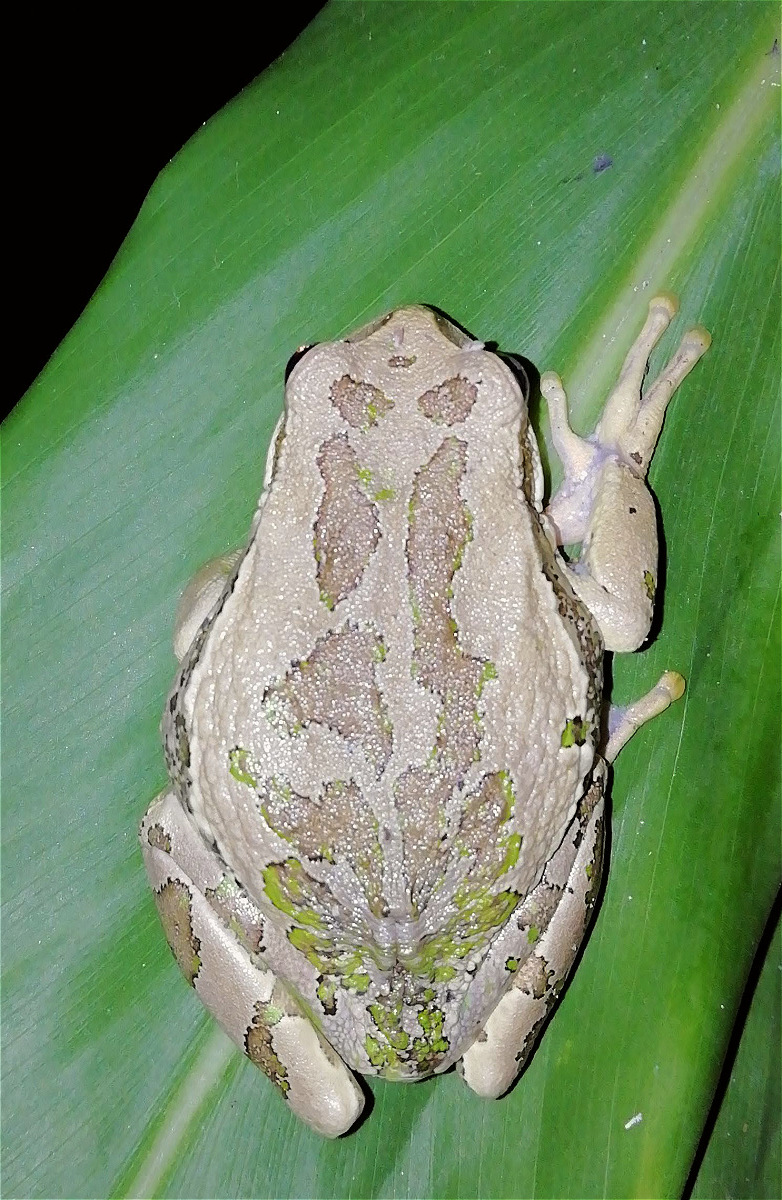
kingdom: Animalia
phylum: Chordata
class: Amphibia
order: Anura
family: Hemiphractidae
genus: Gastrotheca
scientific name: Gastrotheca cuencana
